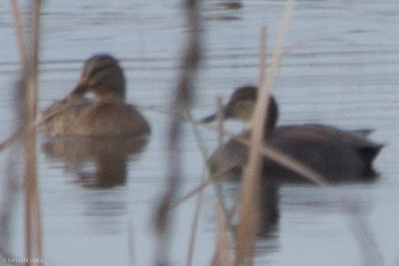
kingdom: Animalia
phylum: Chordata
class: Aves
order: Anseriformes
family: Anatidae
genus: Mareca
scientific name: Mareca strepera
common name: Gadwall
